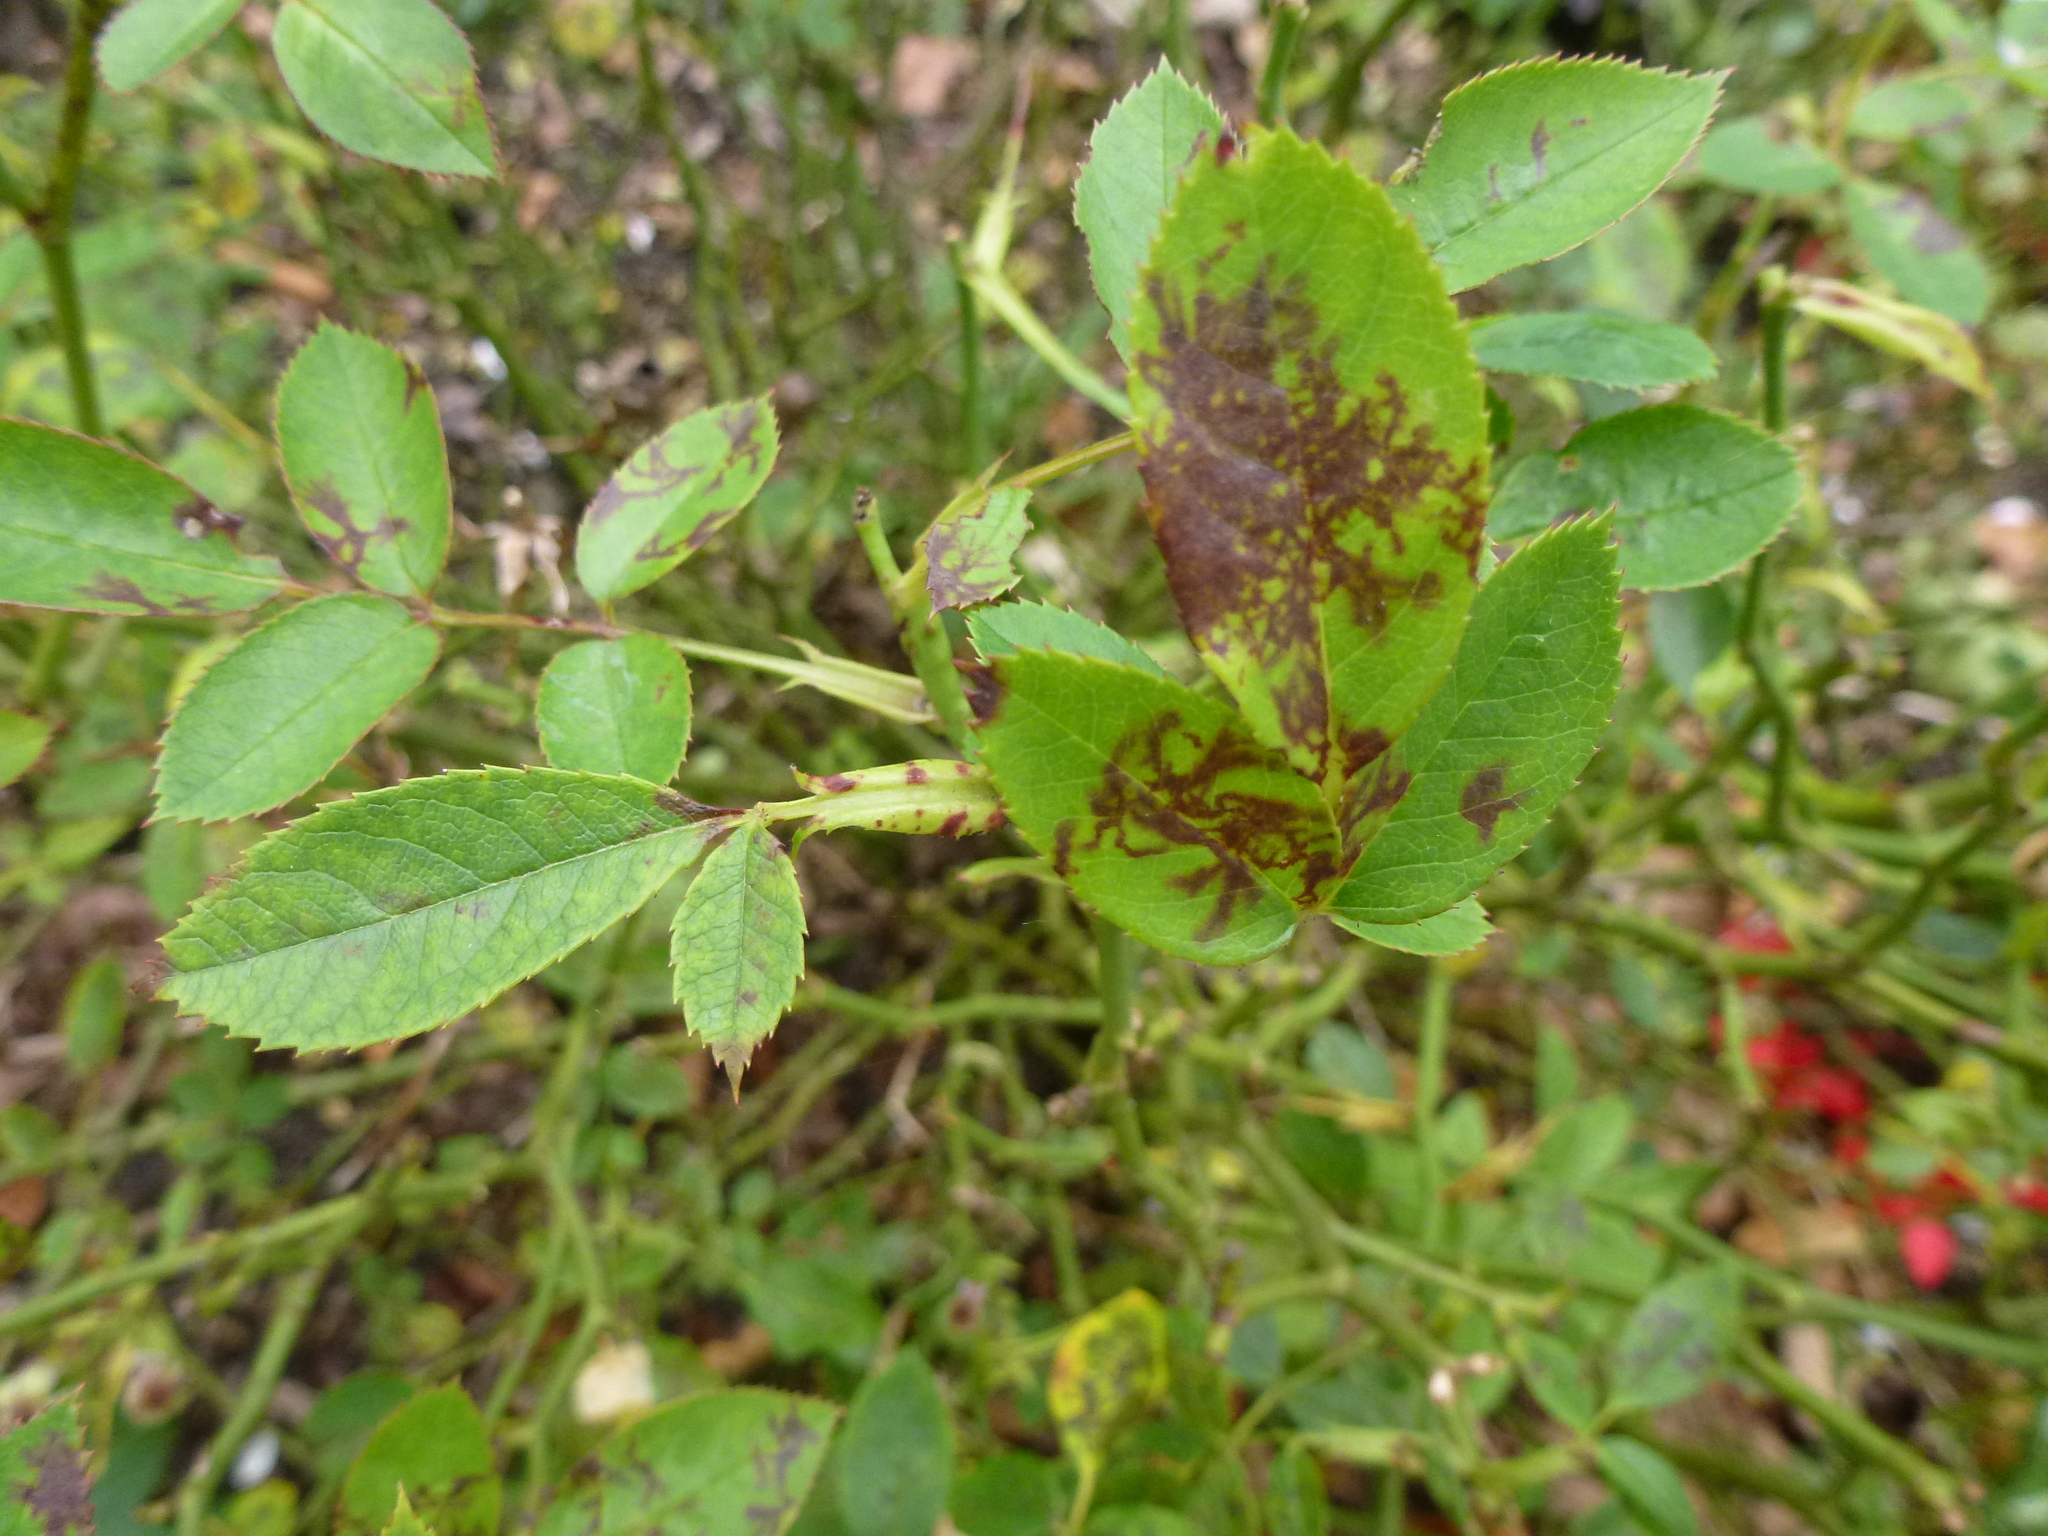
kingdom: Fungi
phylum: Ascomycota
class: Leotiomycetes
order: Helotiales
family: Drepanopezizaceae
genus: Diplocarpon
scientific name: Diplocarpon rosae
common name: Rose black-spot
